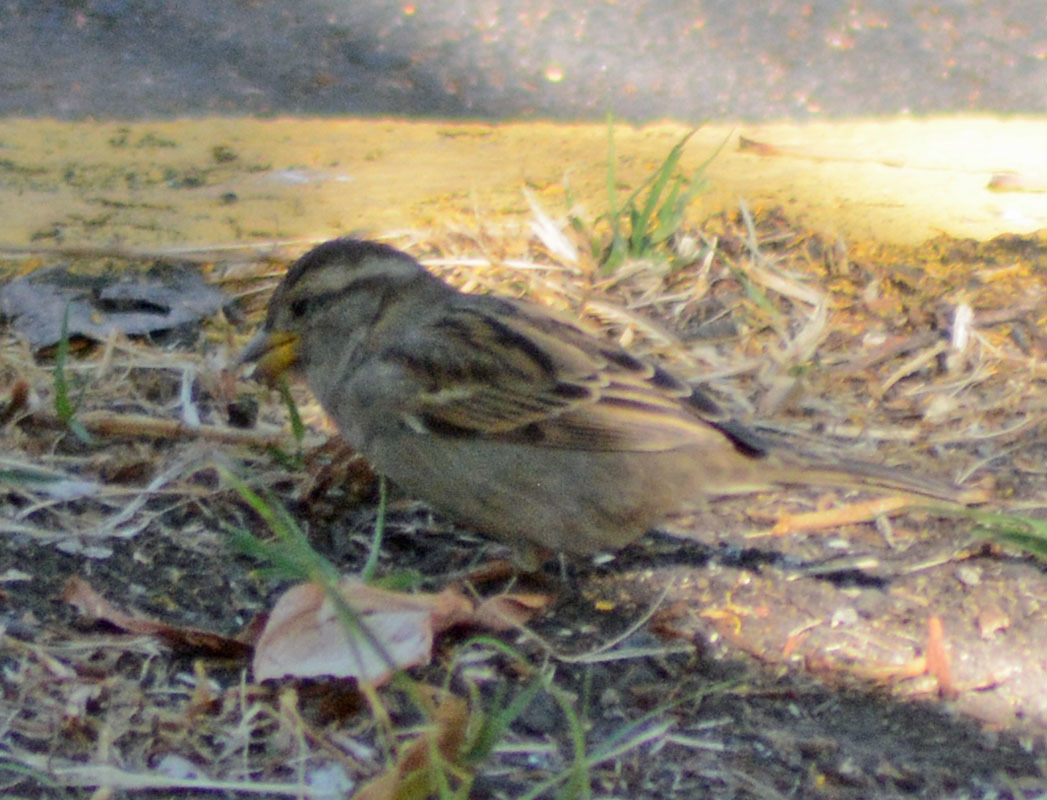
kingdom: Animalia
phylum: Chordata
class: Aves
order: Passeriformes
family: Passeridae
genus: Passer
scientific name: Passer domesticus
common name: House sparrow
